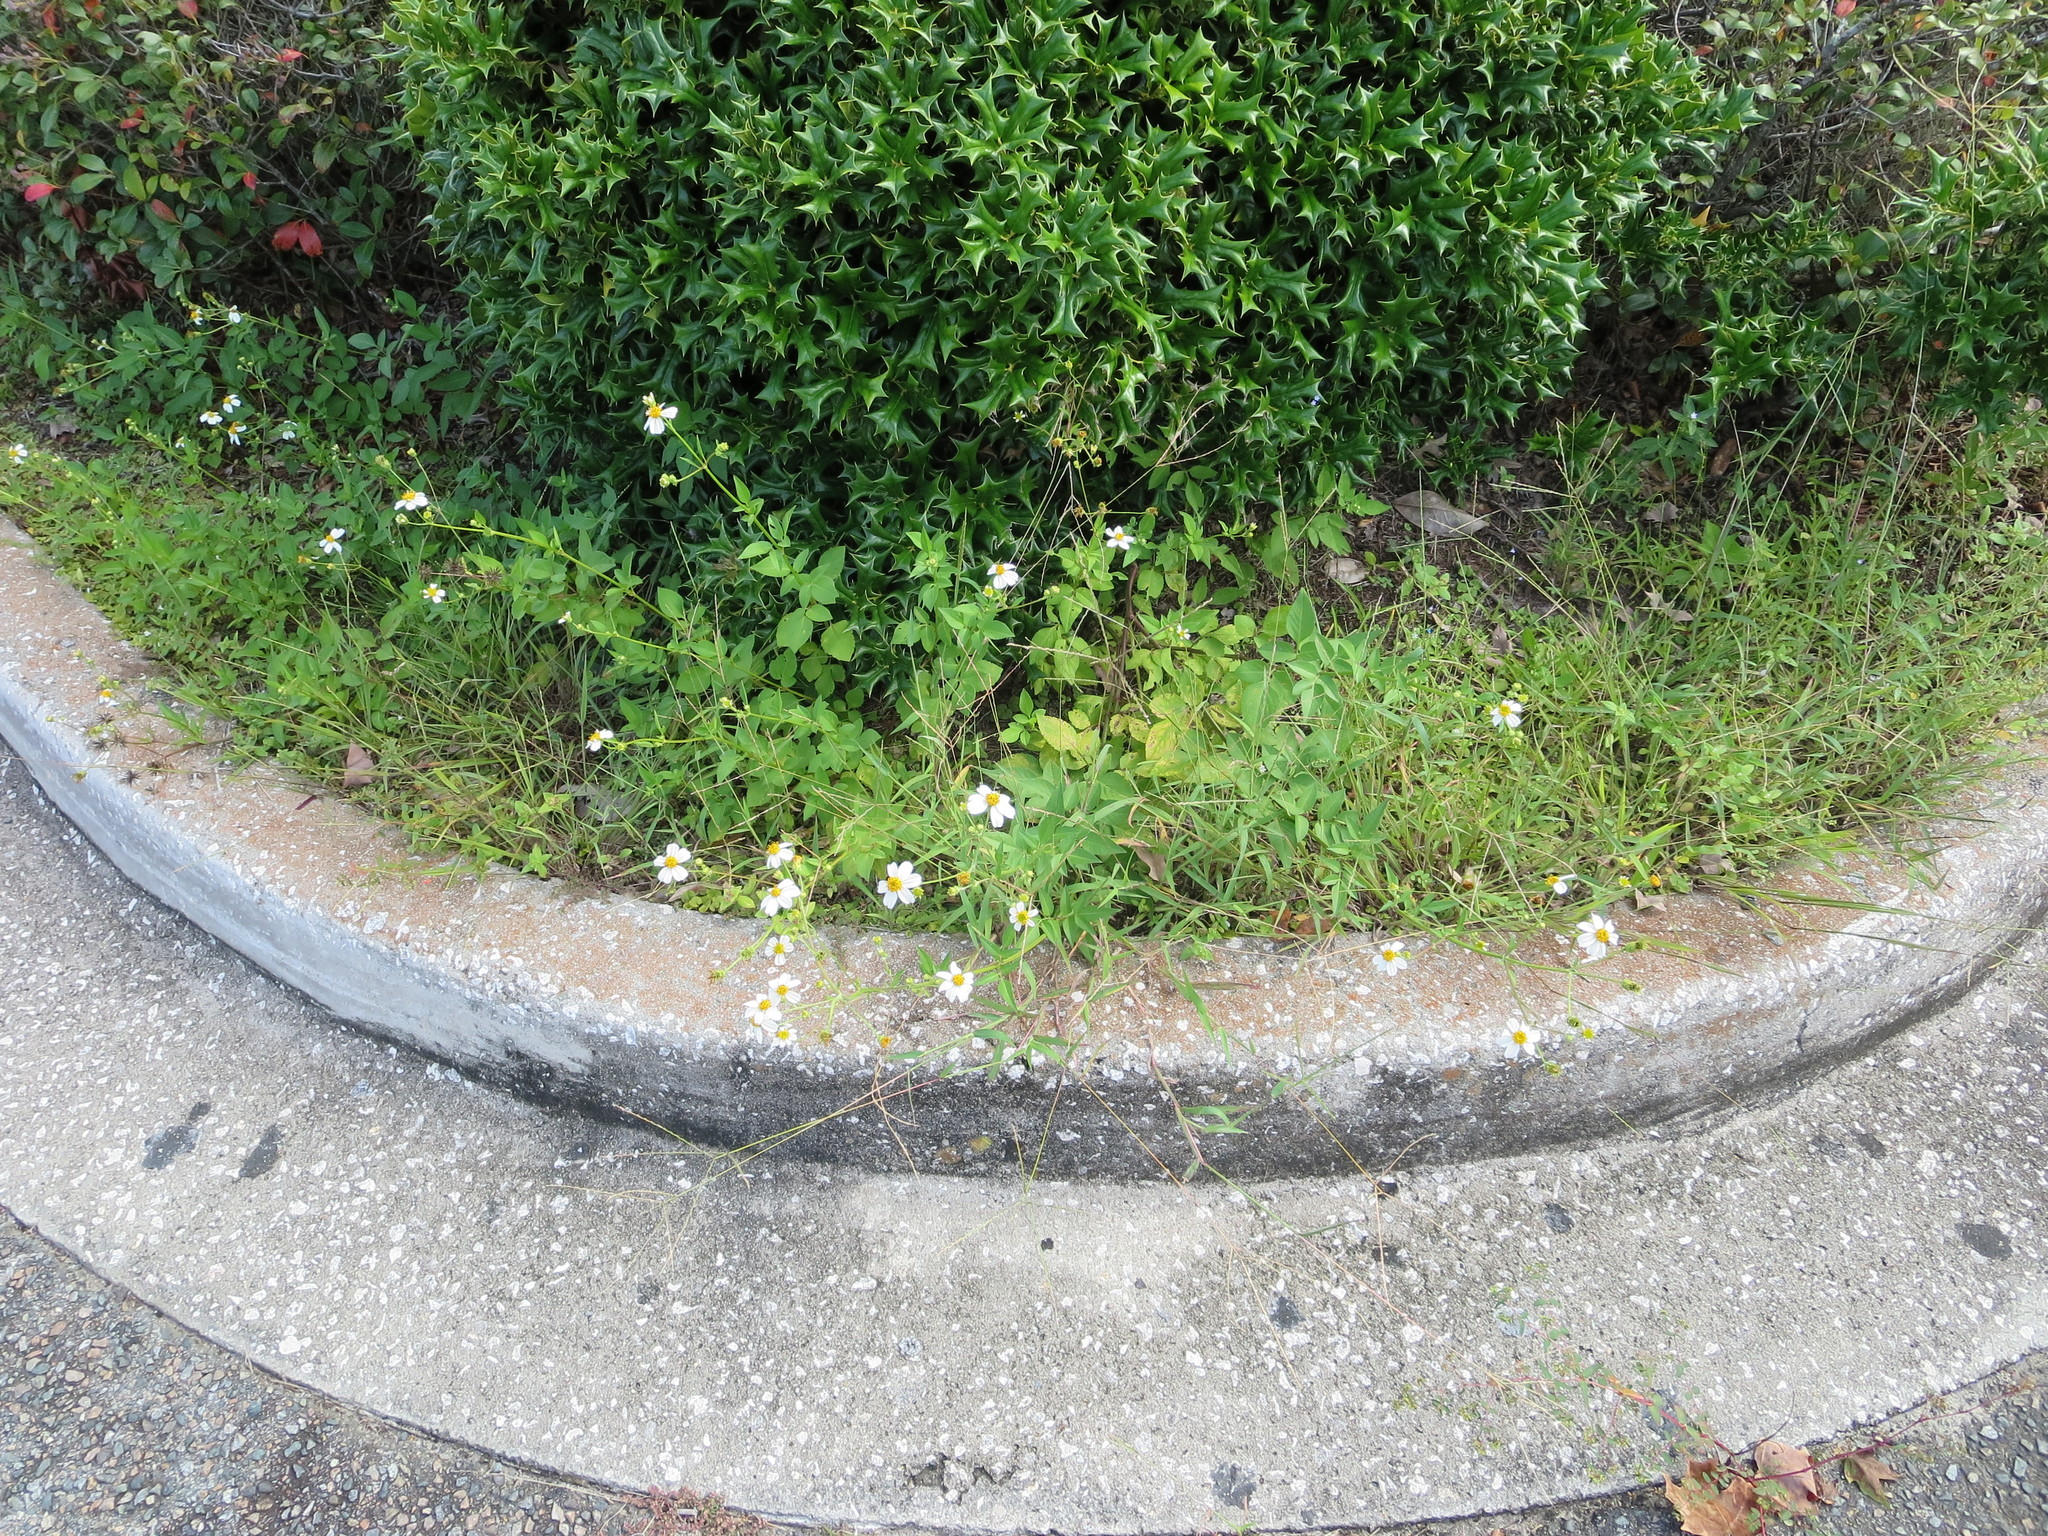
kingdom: Plantae
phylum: Tracheophyta
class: Magnoliopsida
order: Asterales
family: Asteraceae
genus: Bidens
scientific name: Bidens alba
